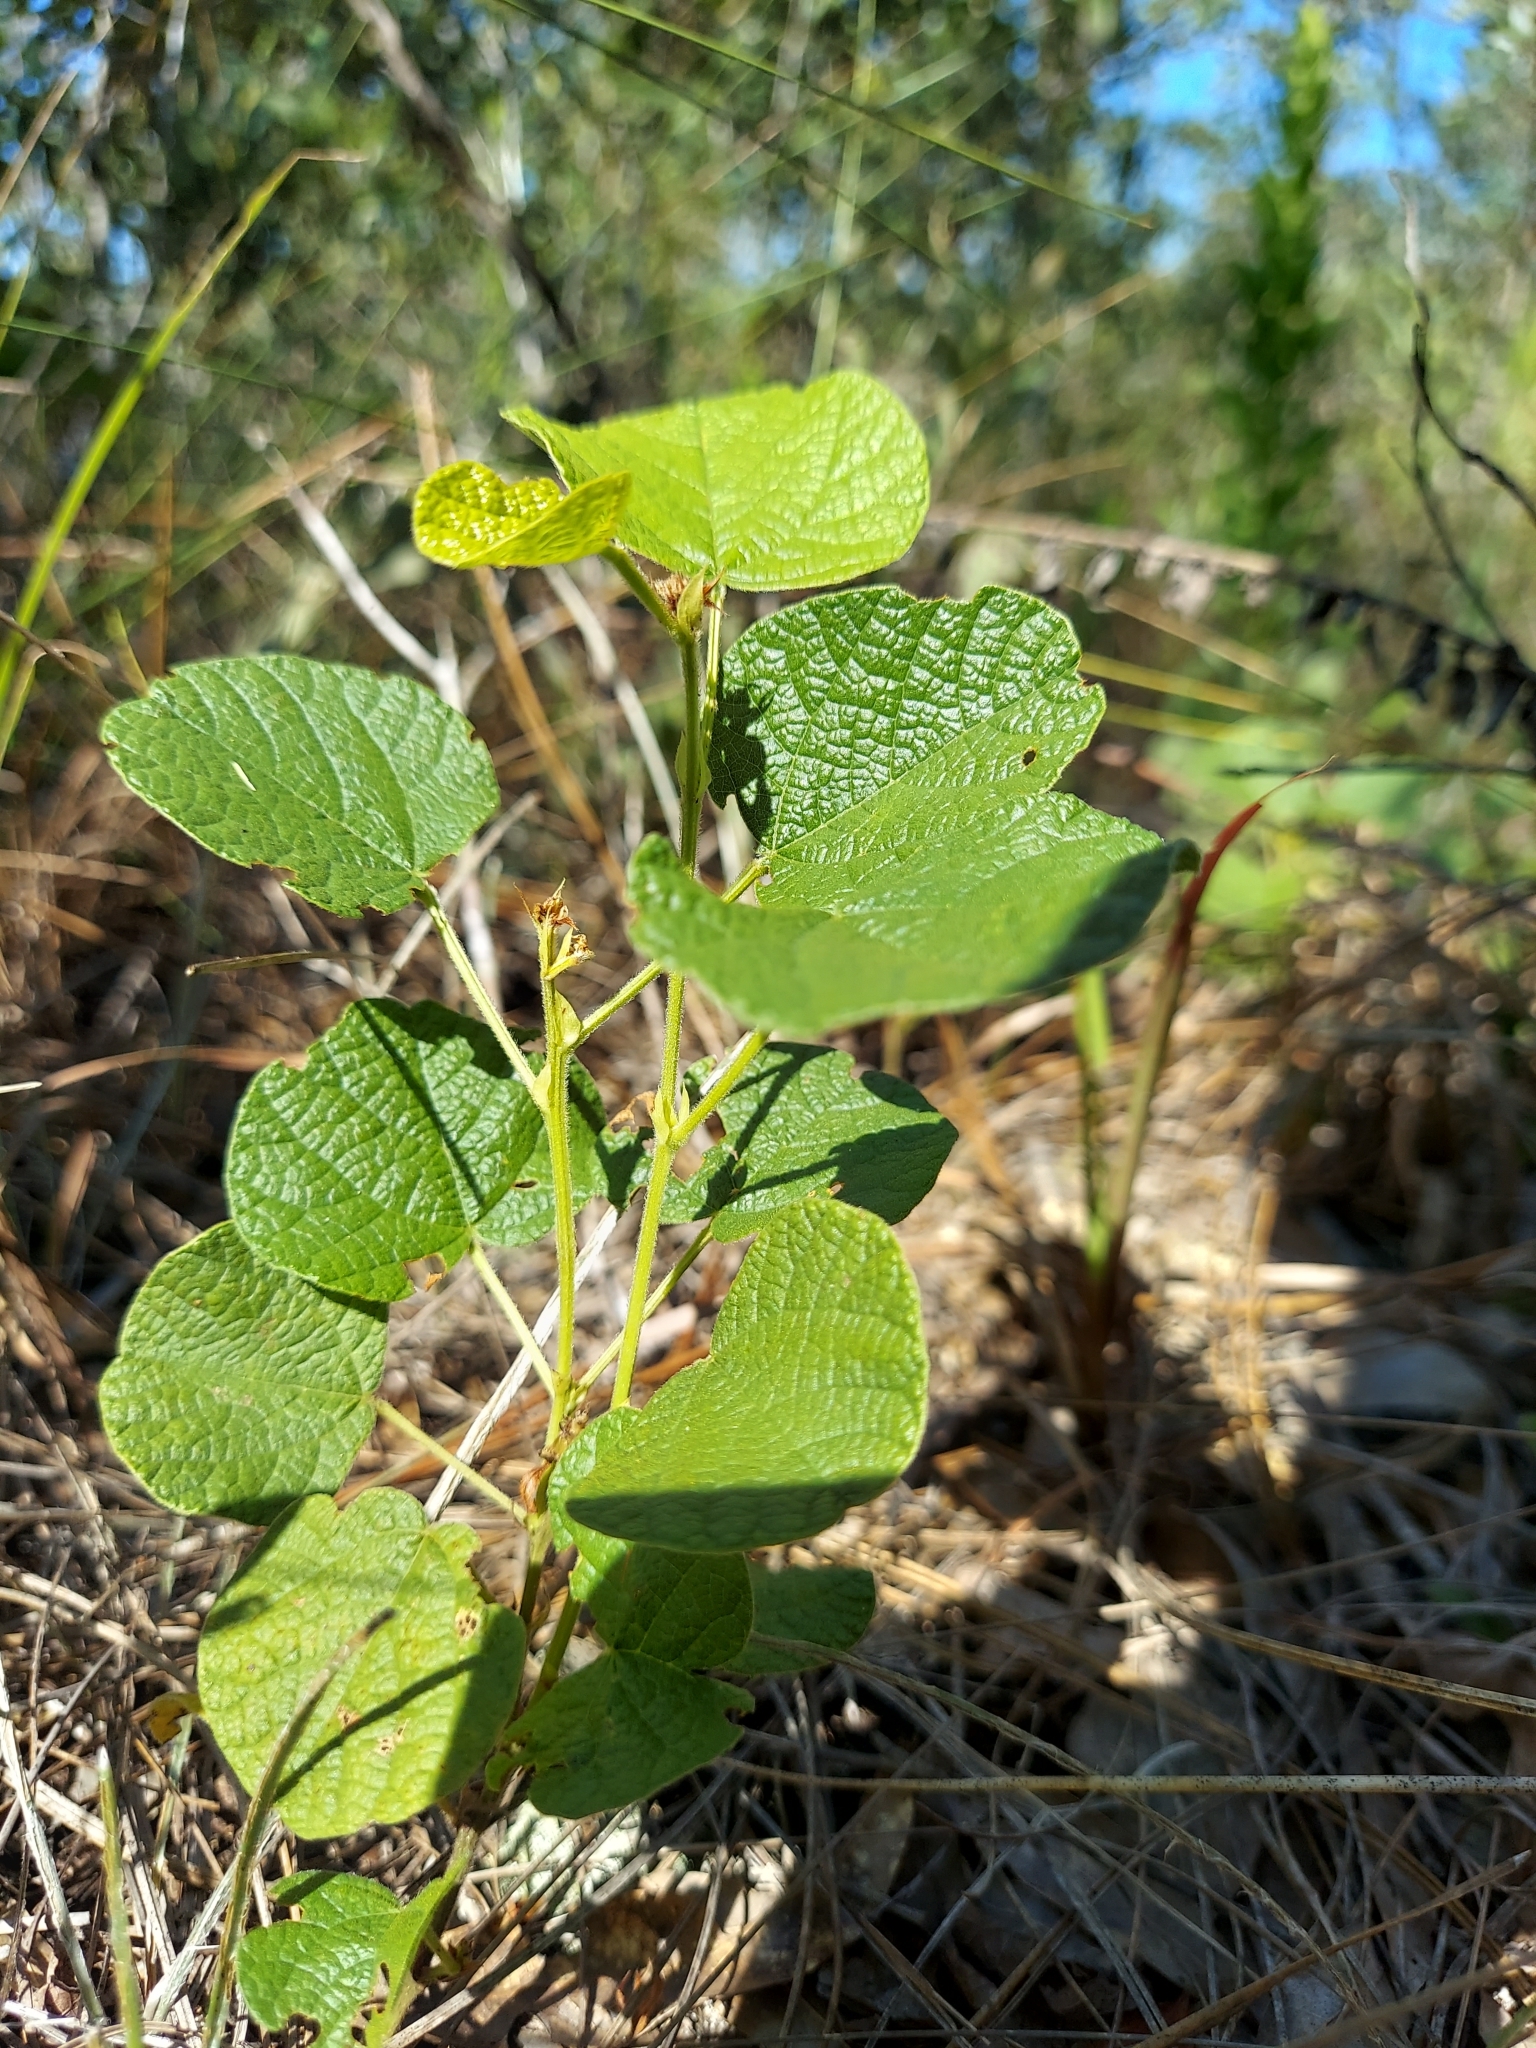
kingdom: Plantae
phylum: Tracheophyta
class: Magnoliopsida
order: Fabales
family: Fabaceae
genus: Rhynchosia
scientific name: Rhynchosia reniformis
